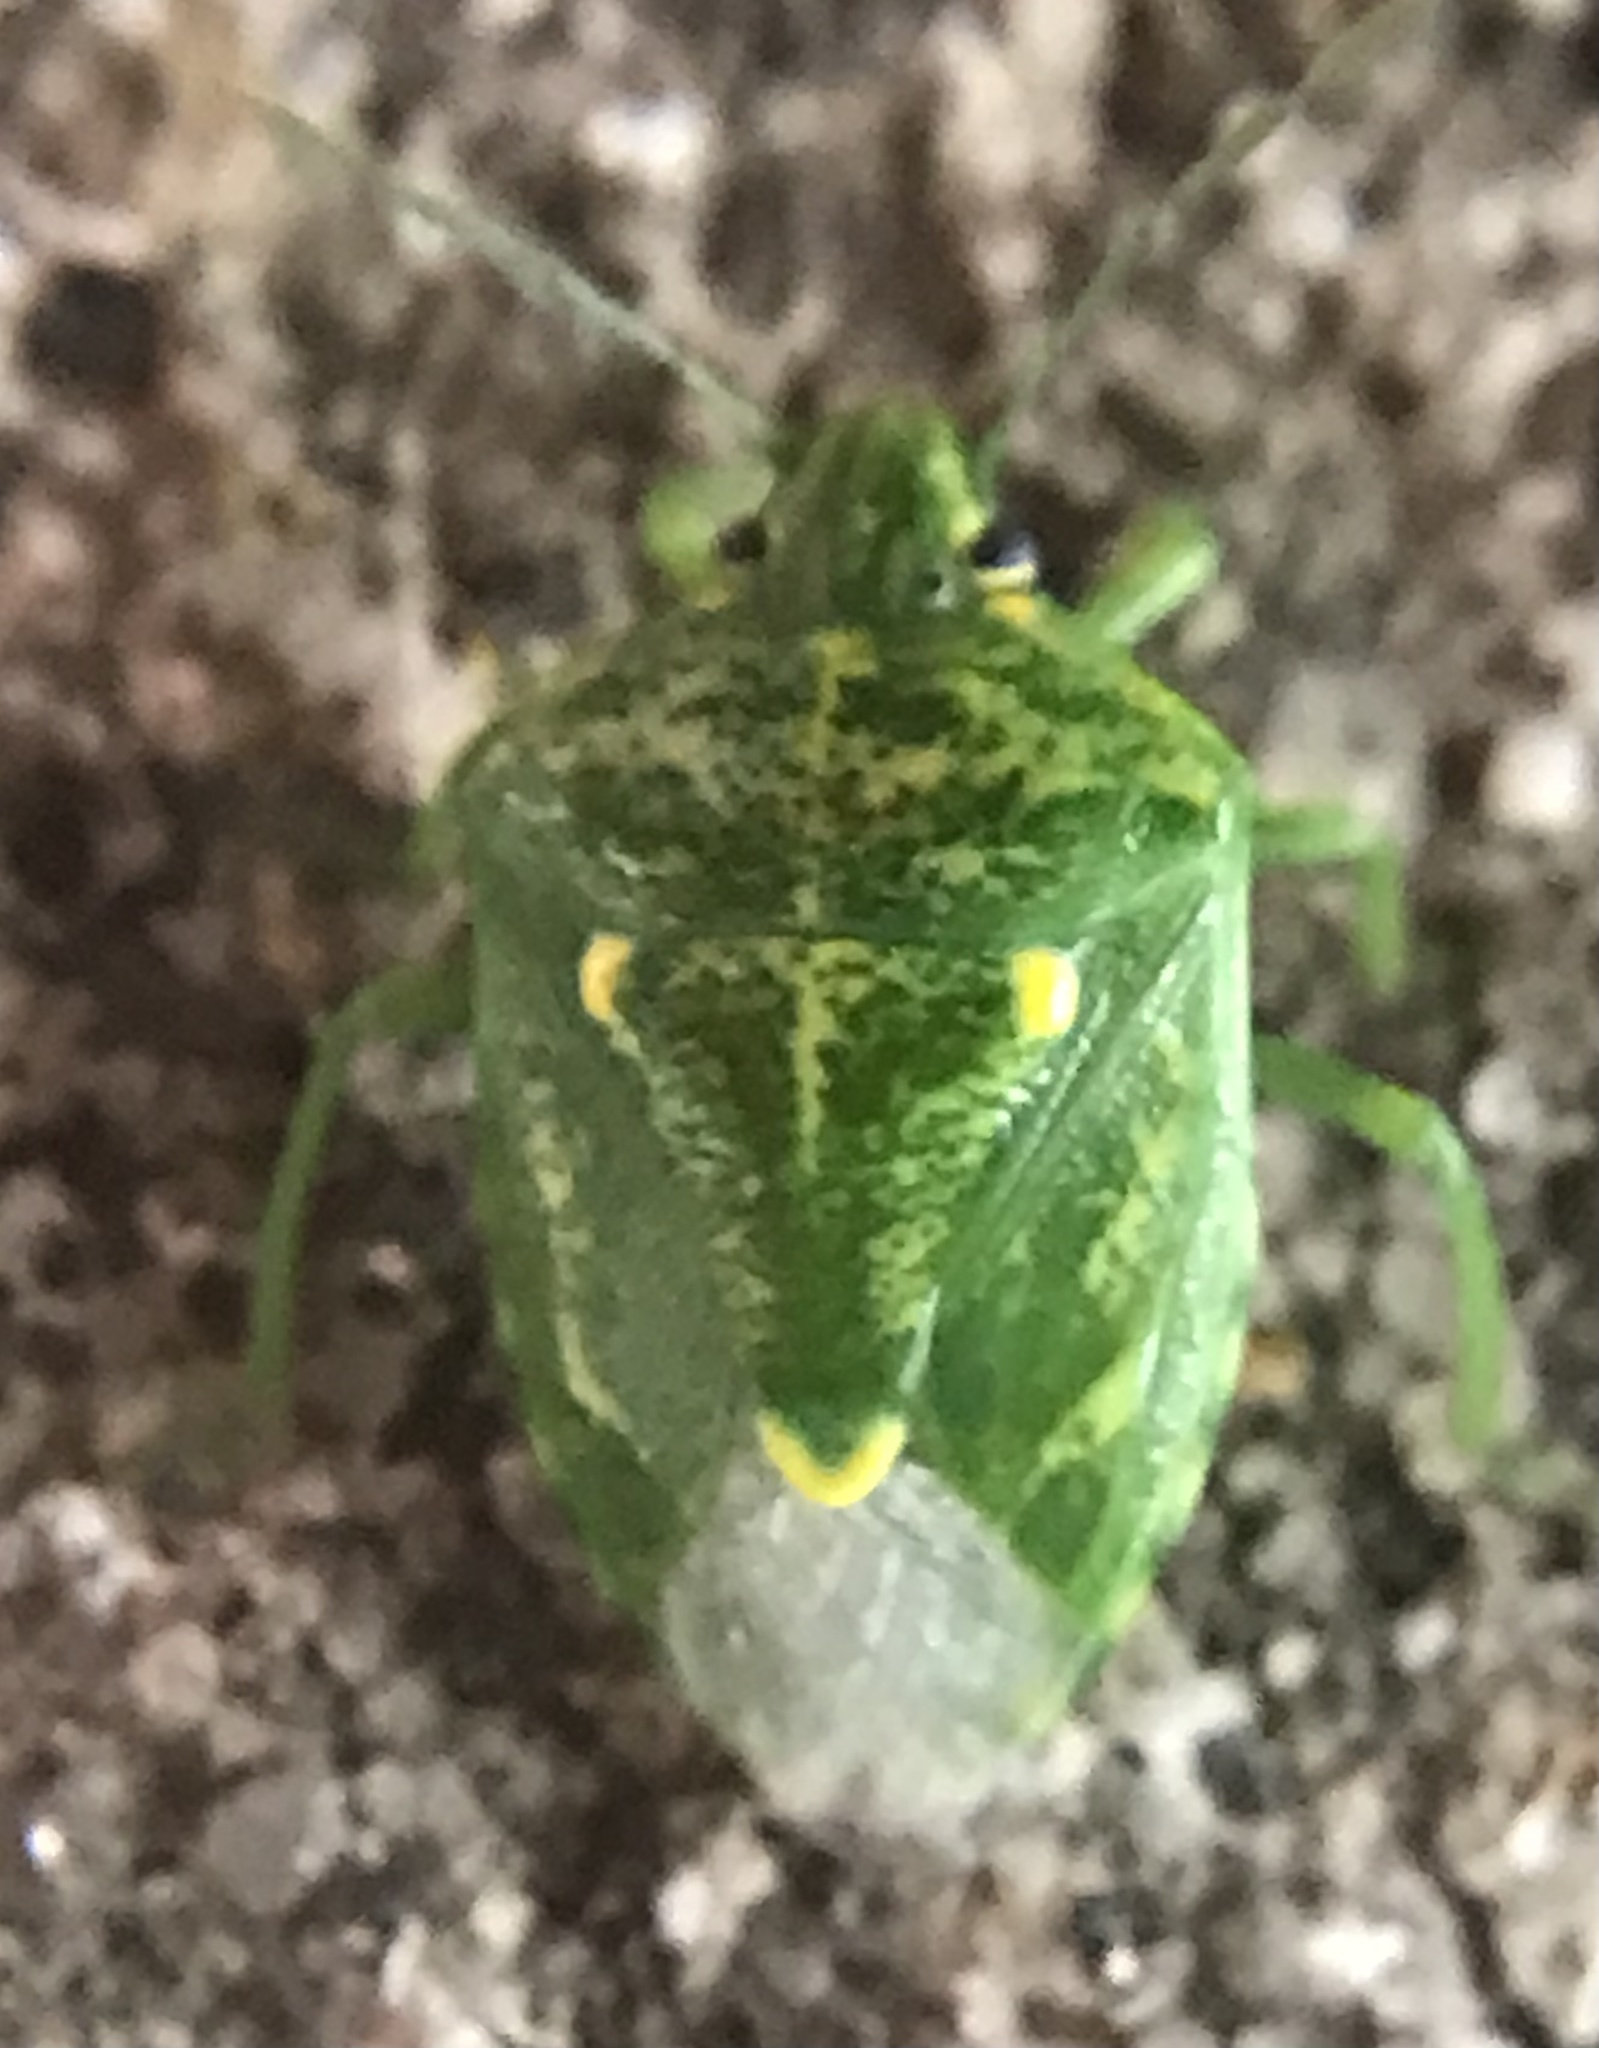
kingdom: Animalia
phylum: Arthropoda
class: Insecta
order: Hemiptera
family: Pentatomidae
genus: Banasa
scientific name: Banasa euchlora
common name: Cedar berry bug
